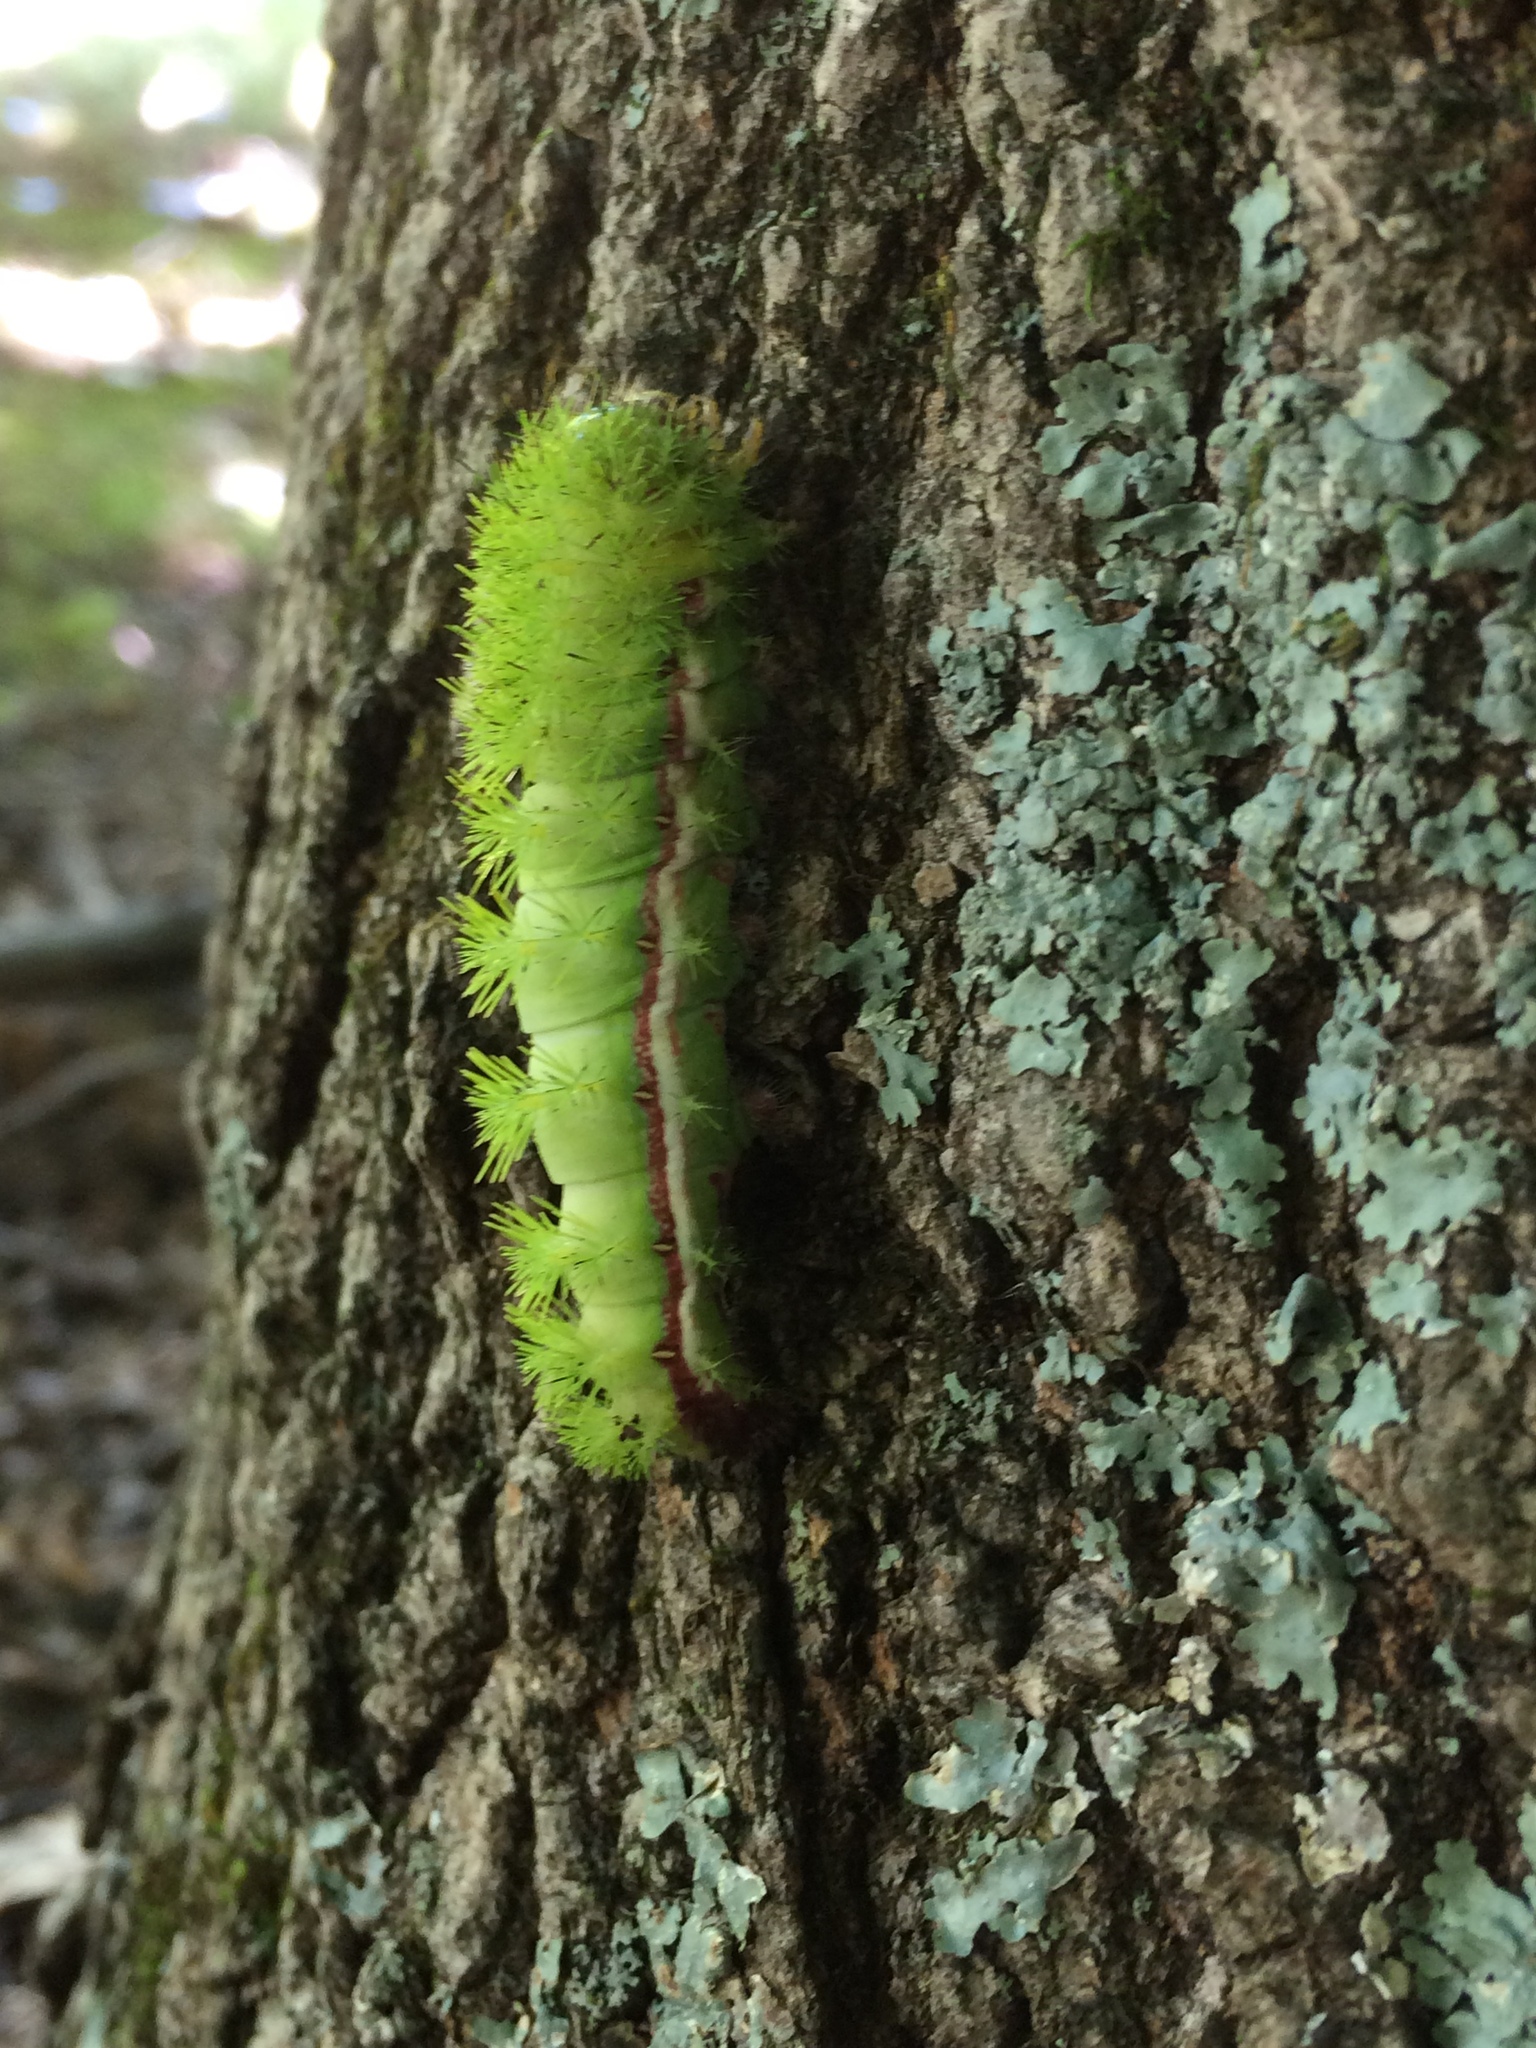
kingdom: Animalia
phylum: Arthropoda
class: Insecta
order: Lepidoptera
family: Saturniidae
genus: Automeris
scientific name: Automeris io
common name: Io moth
